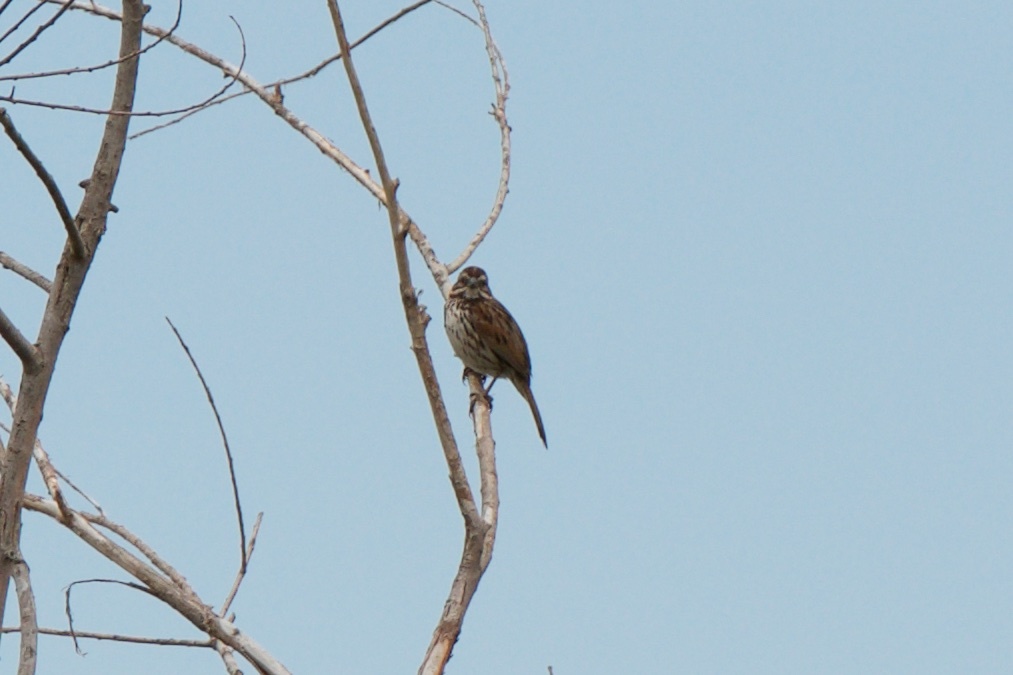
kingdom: Animalia
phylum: Chordata
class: Aves
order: Passeriformes
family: Passerellidae
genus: Melospiza
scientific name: Melospiza melodia
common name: Song sparrow
